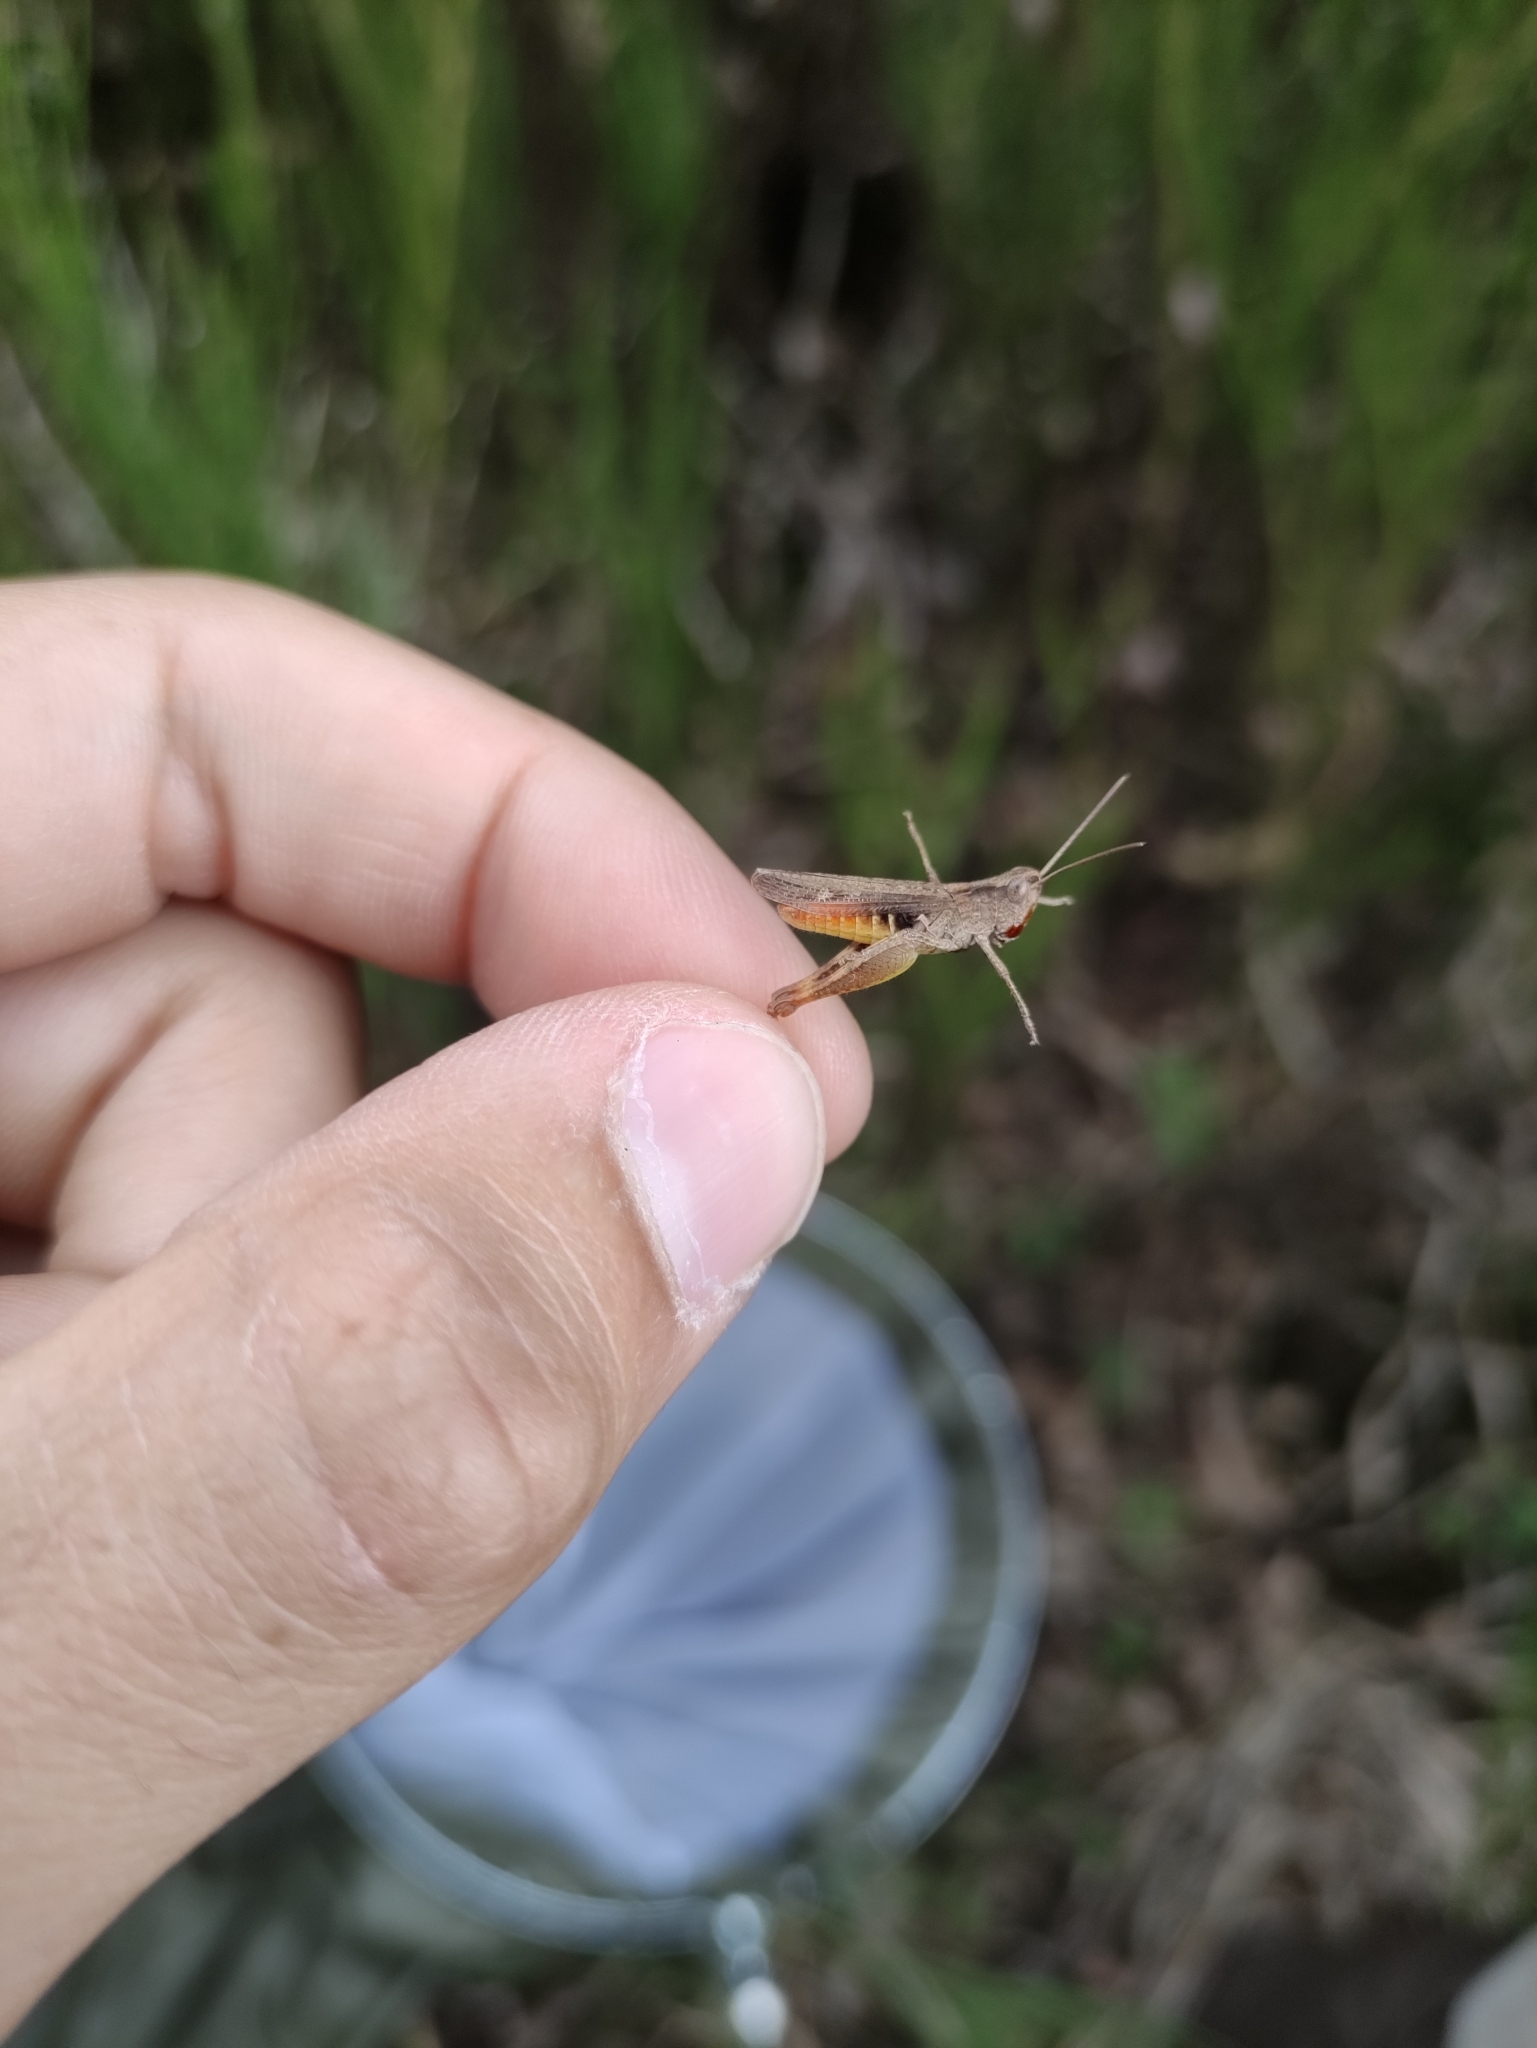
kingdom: Animalia
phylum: Arthropoda
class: Insecta
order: Orthoptera
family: Acrididae
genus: Chorthippus
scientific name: Chorthippus vagans
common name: Heath grasshopper
